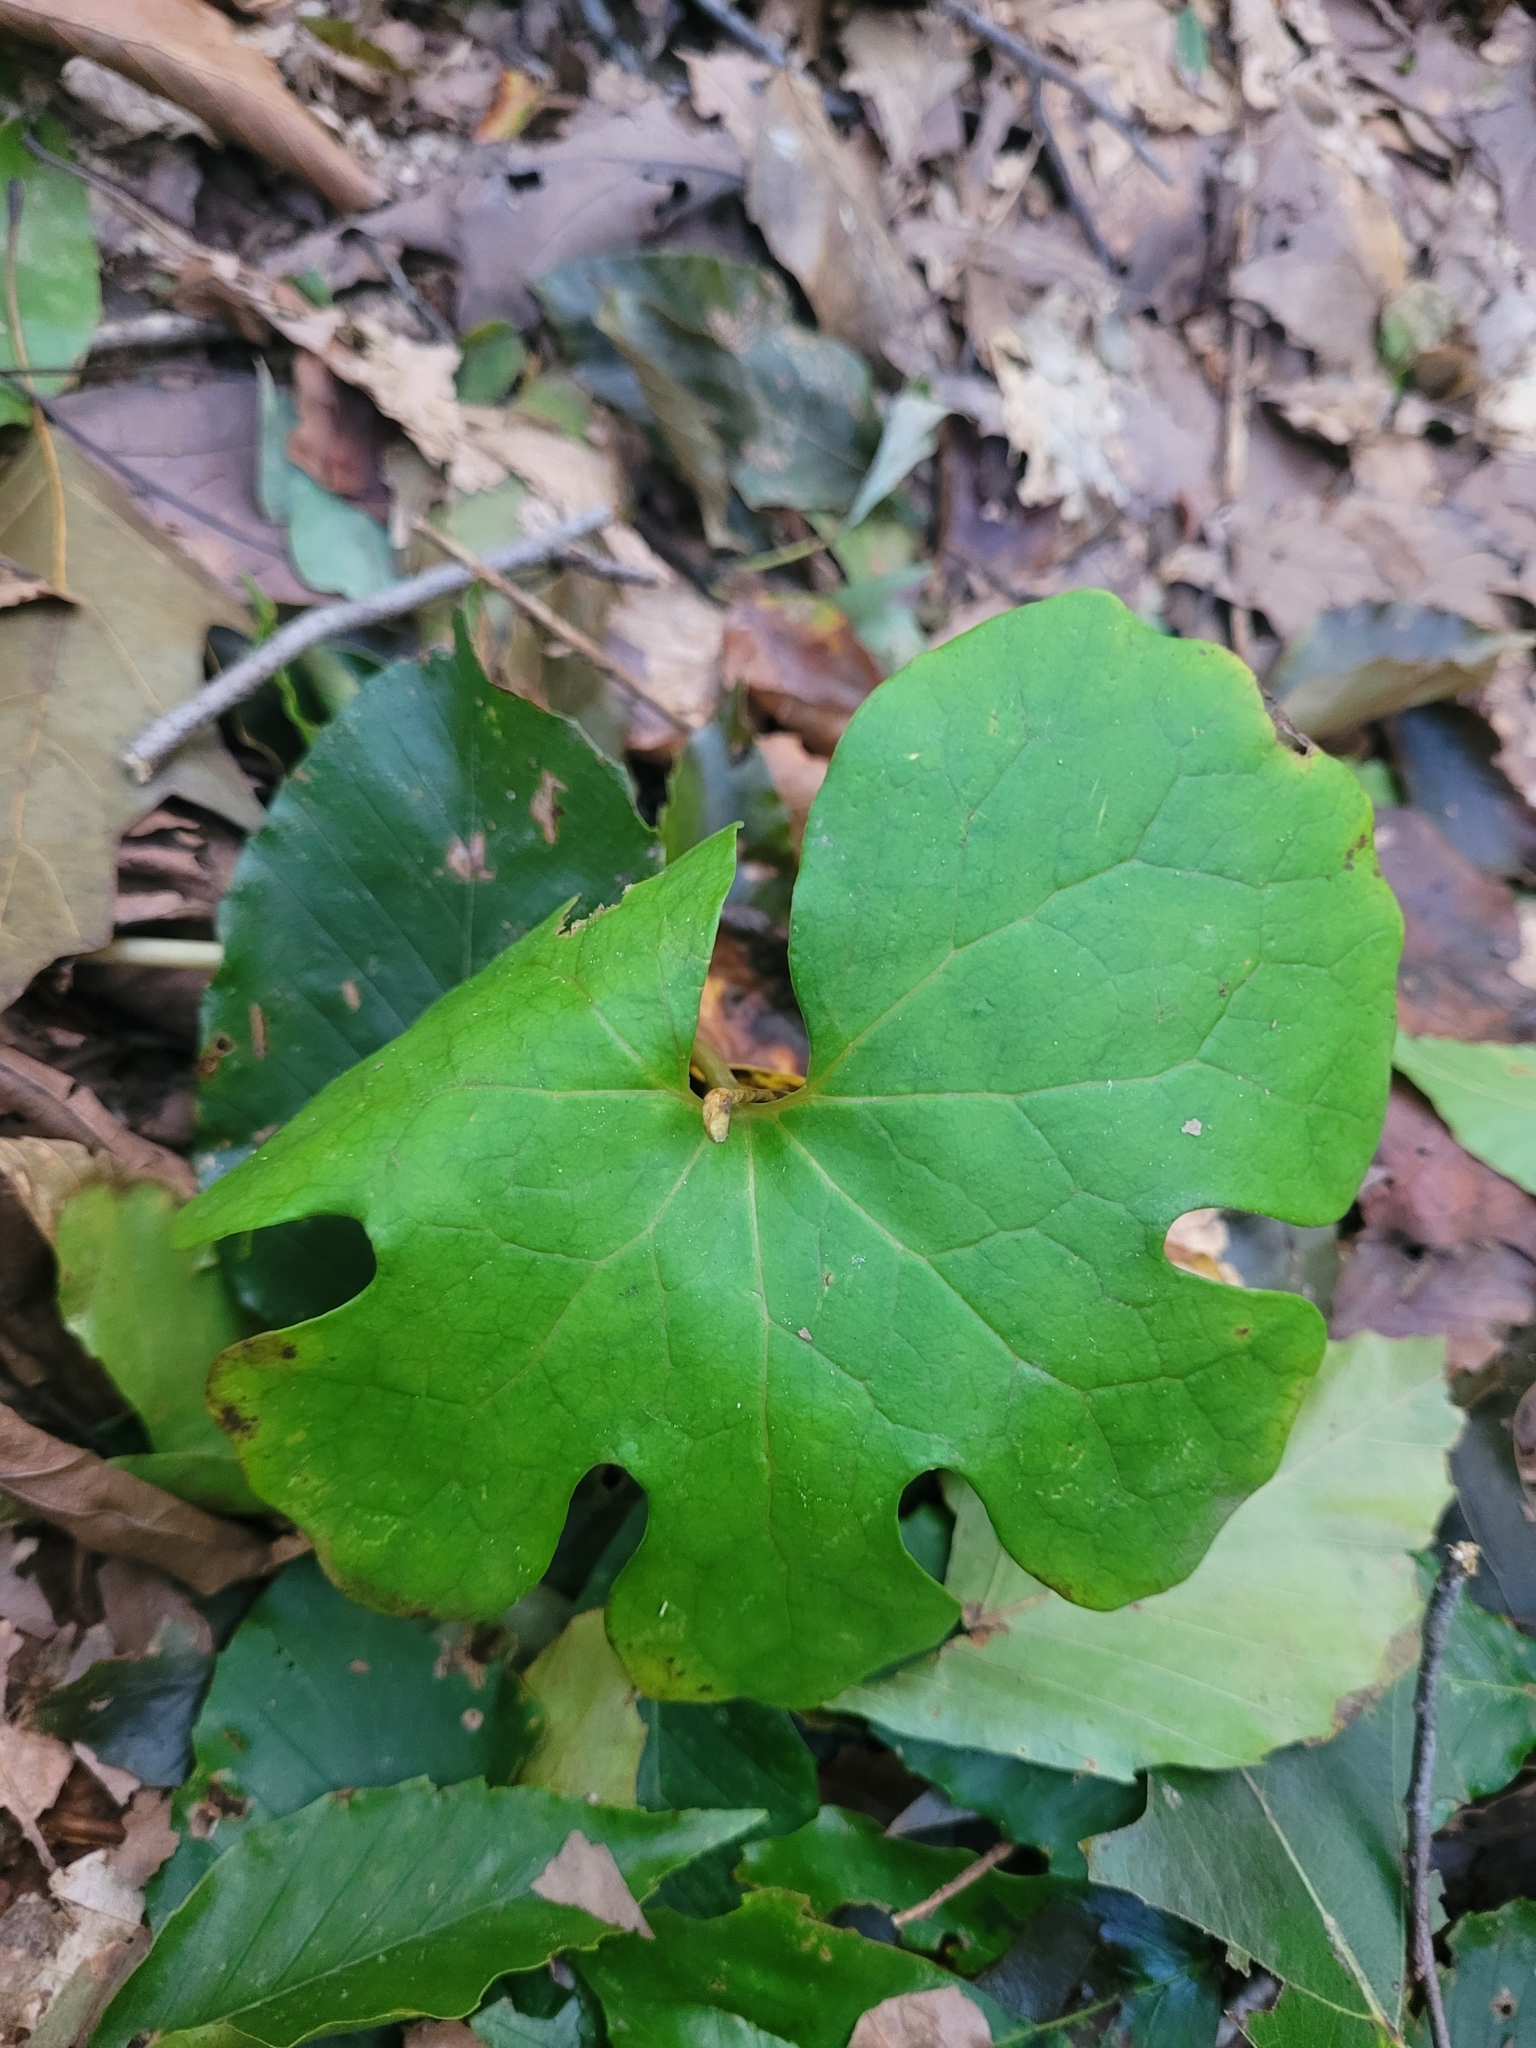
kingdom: Plantae
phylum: Tracheophyta
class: Magnoliopsida
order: Ranunculales
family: Papaveraceae
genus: Sanguinaria
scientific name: Sanguinaria canadensis
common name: Bloodroot
